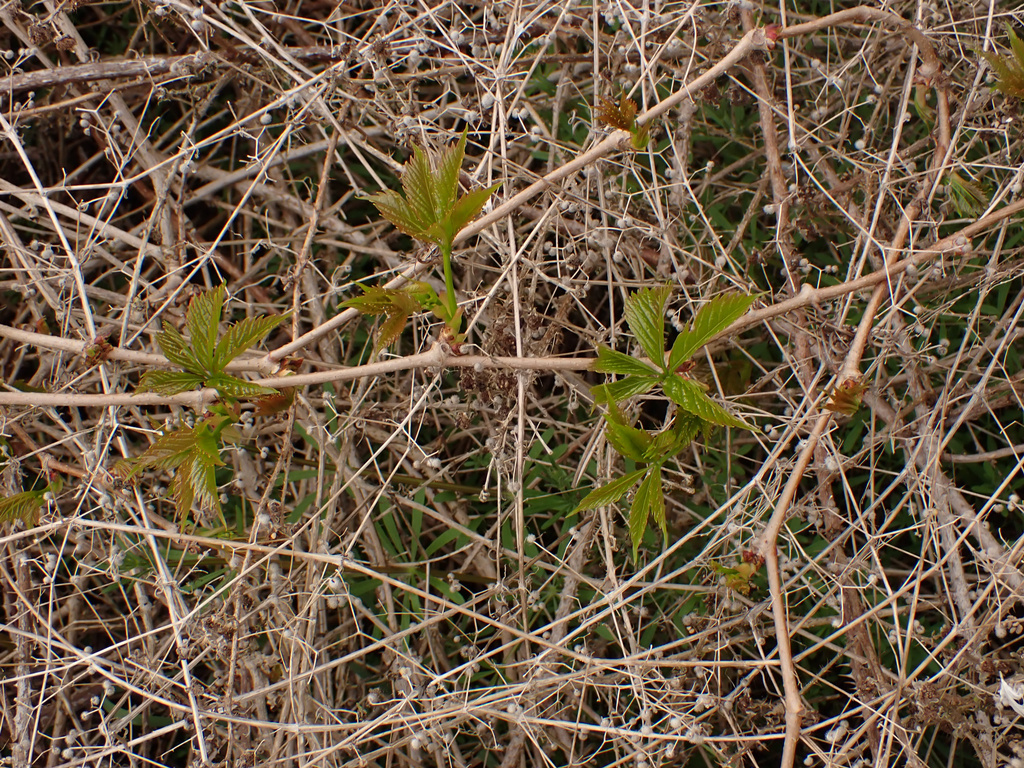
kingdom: Plantae
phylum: Tracheophyta
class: Magnoliopsida
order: Vitales
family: Vitaceae
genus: Parthenocissus
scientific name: Parthenocissus quinquefolia
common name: Virginia-creeper
